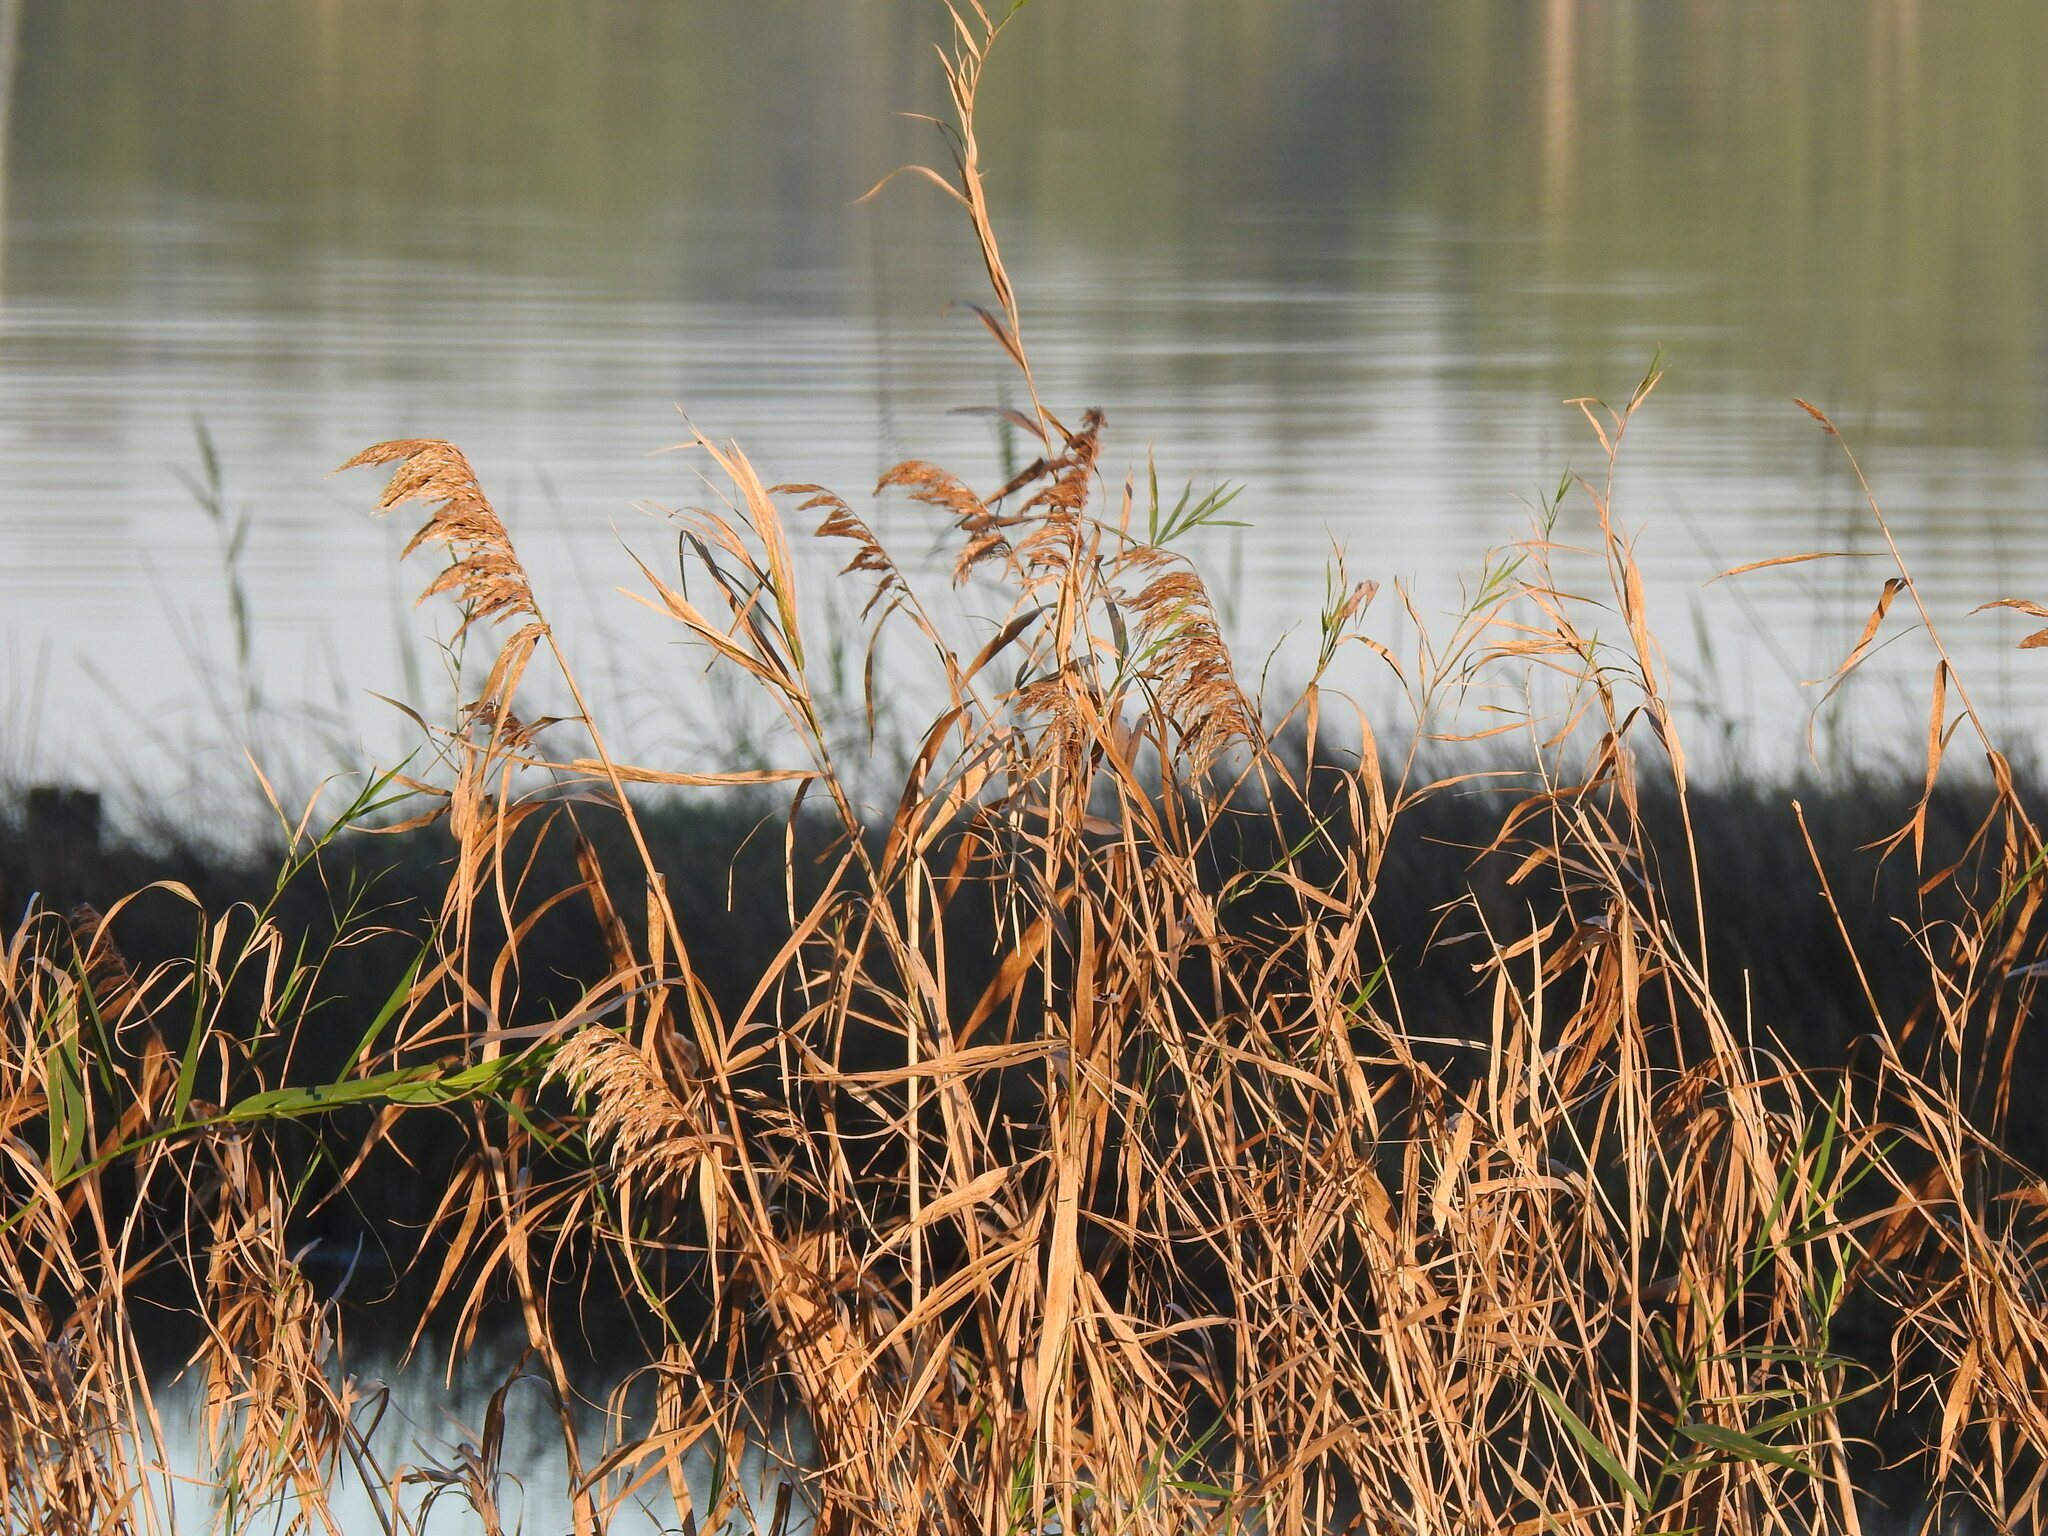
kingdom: Plantae
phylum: Tracheophyta
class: Liliopsida
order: Poales
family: Poaceae
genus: Phragmites
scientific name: Phragmites australis
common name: Common reed
